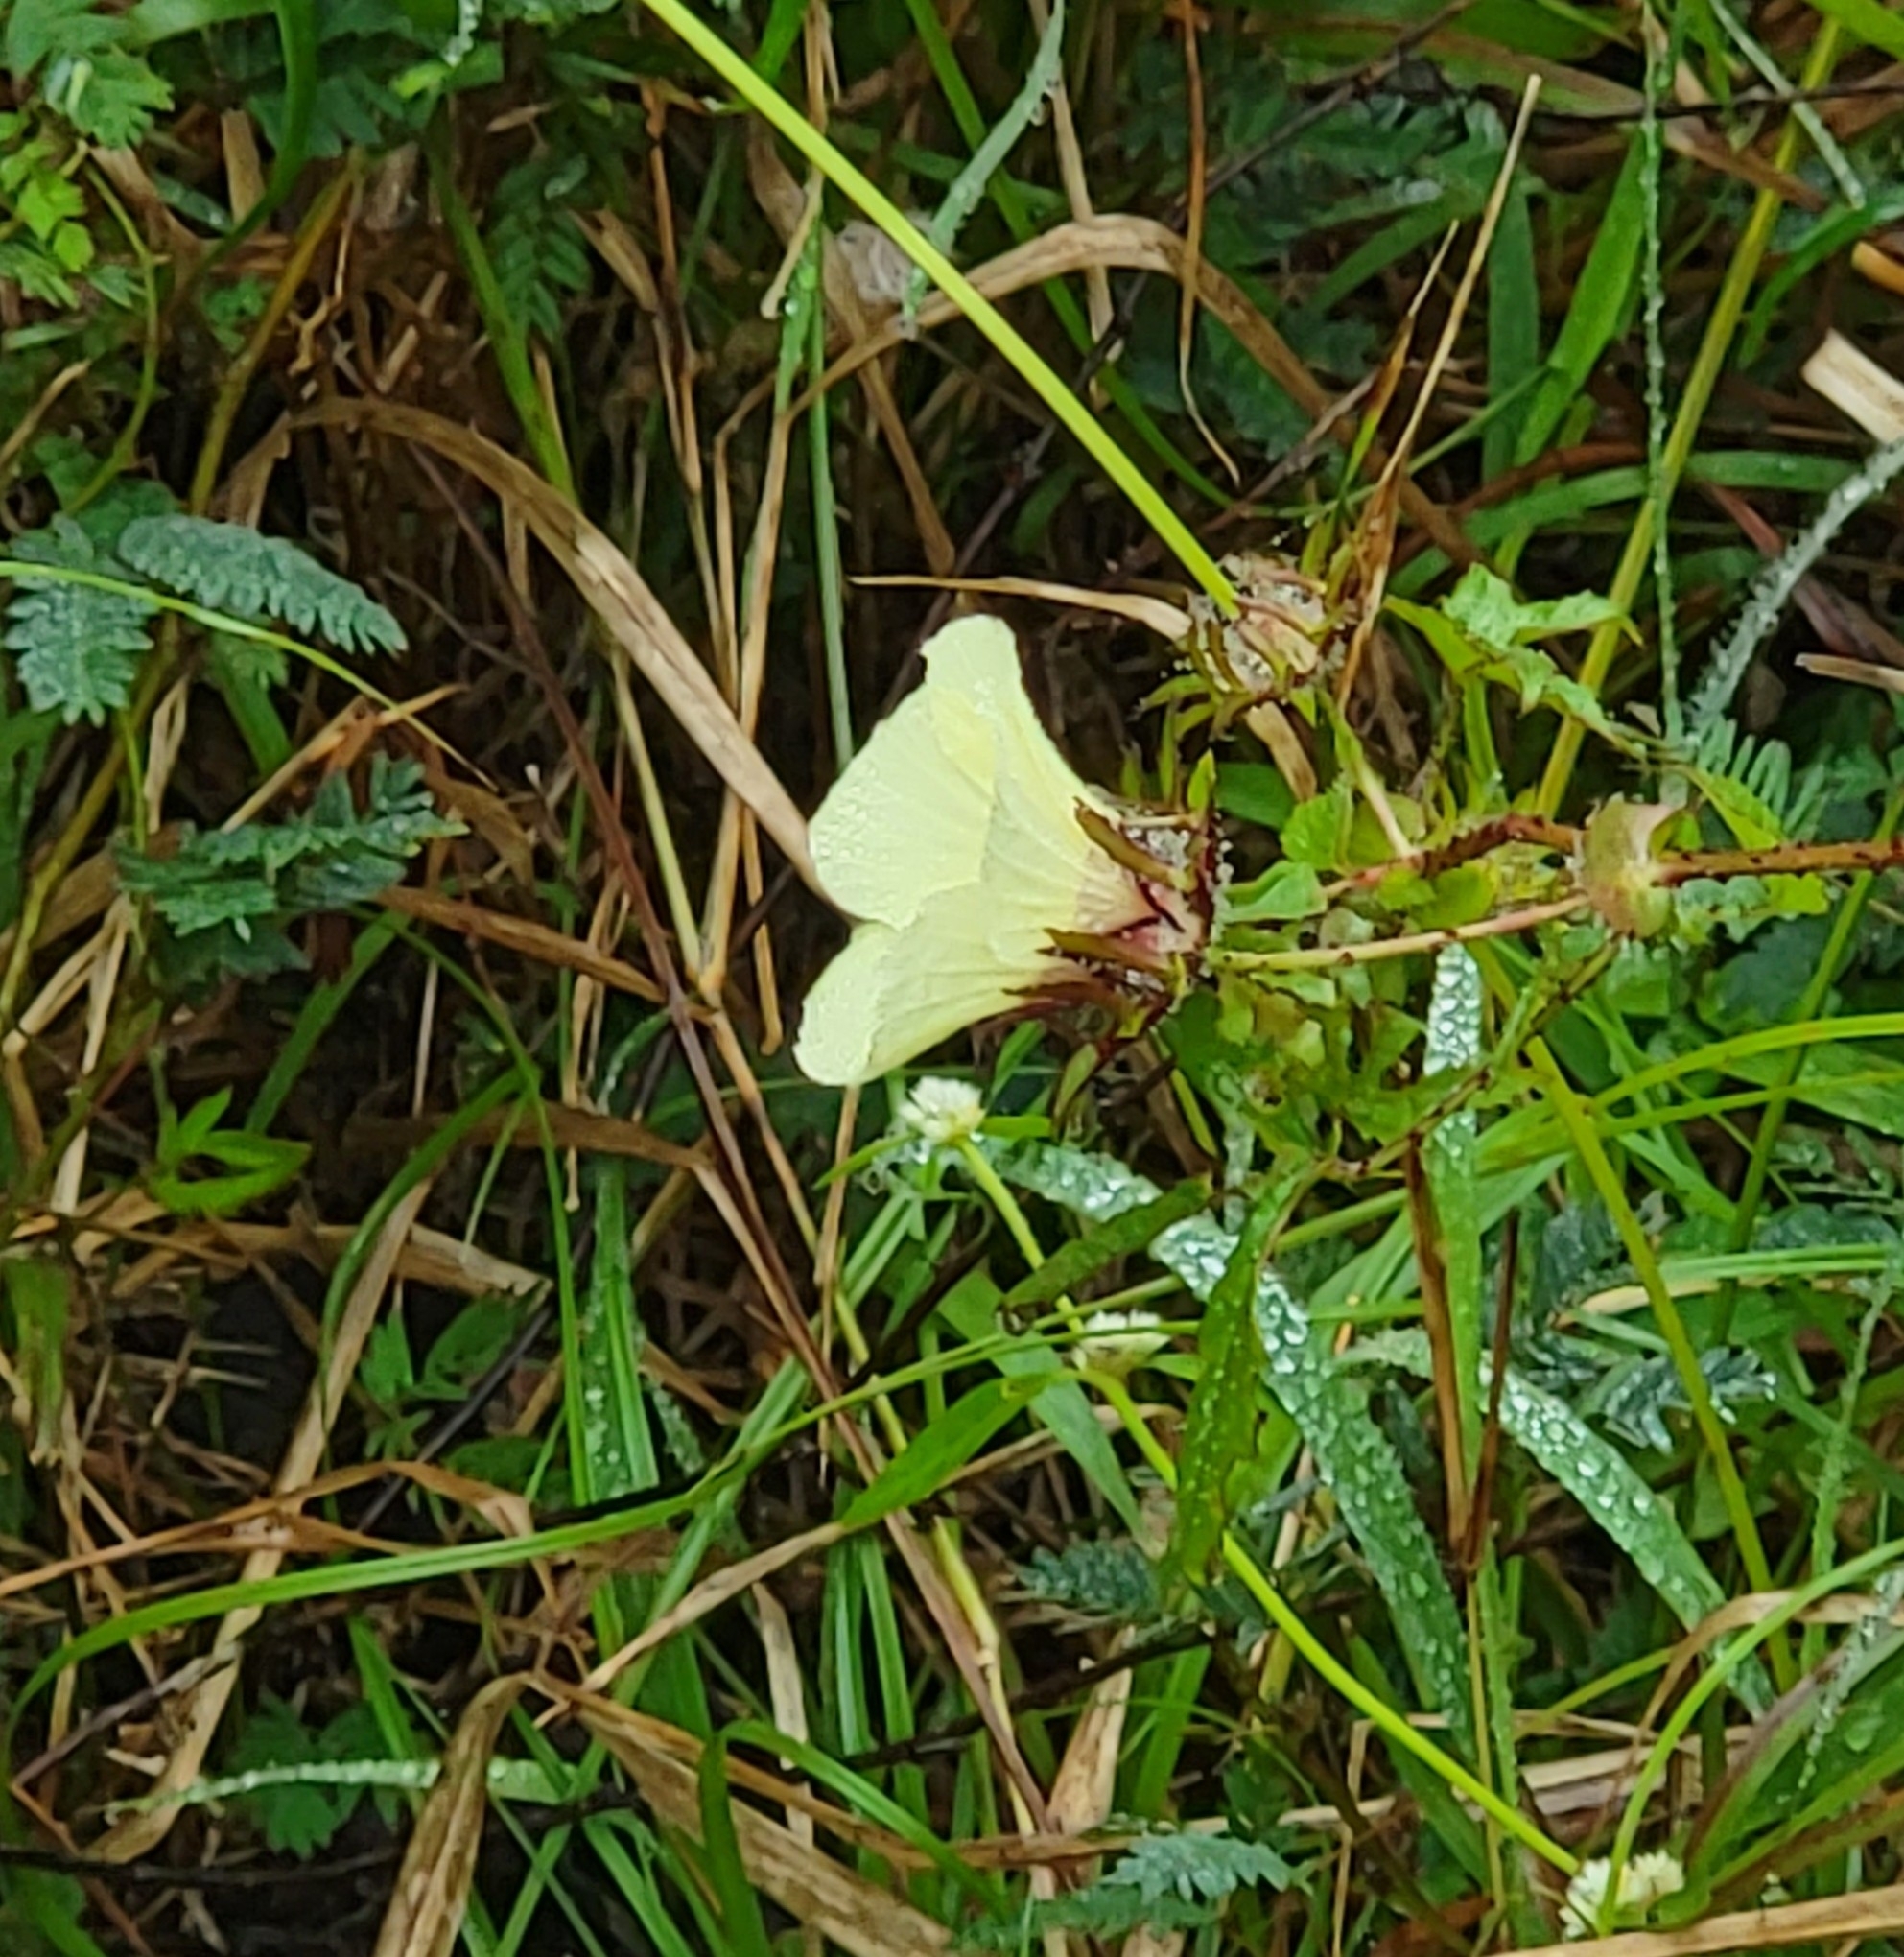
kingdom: Plantae
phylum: Tracheophyta
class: Magnoliopsida
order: Malvales
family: Malvaceae
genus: Hibiscus
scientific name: Hibiscus surattensis
